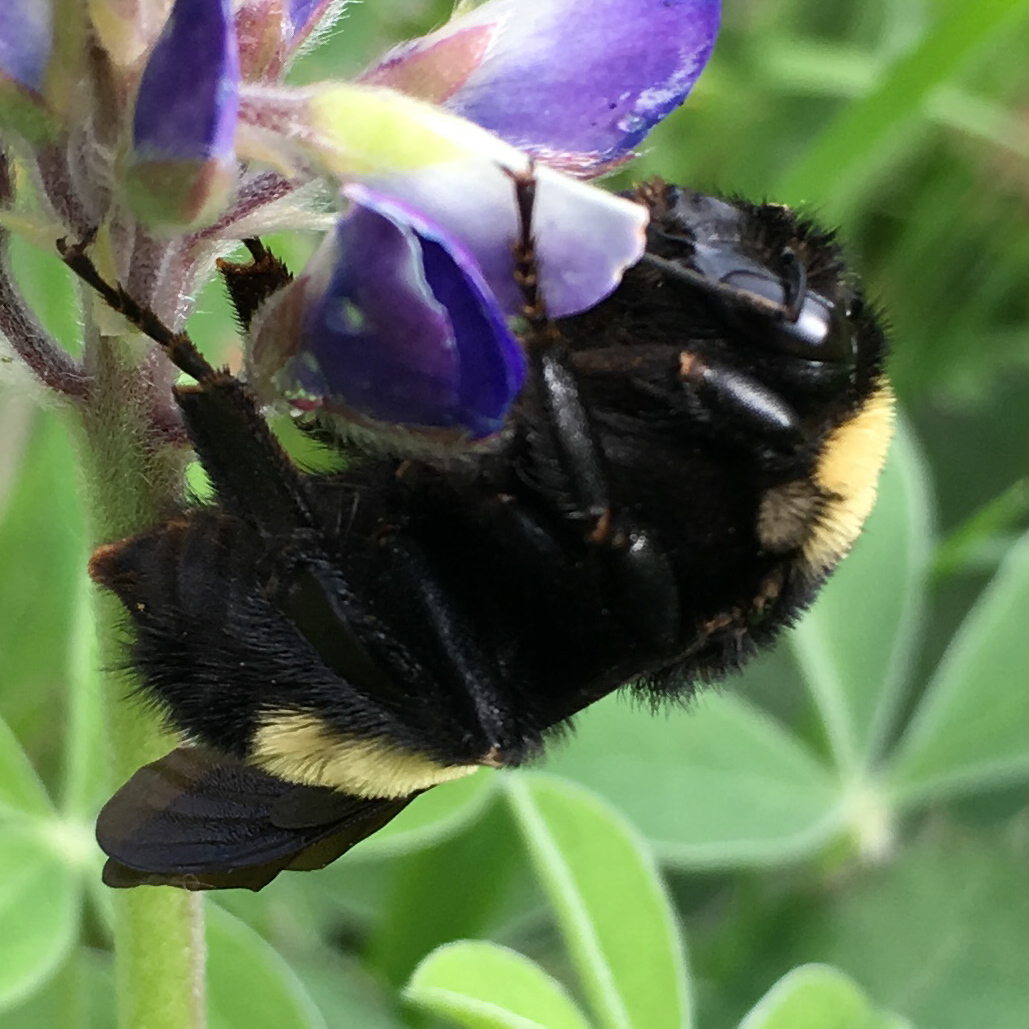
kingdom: Animalia
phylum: Arthropoda
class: Insecta
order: Hymenoptera
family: Apidae
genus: Bombus
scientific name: Bombus pensylvanicus
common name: Bumble bee
